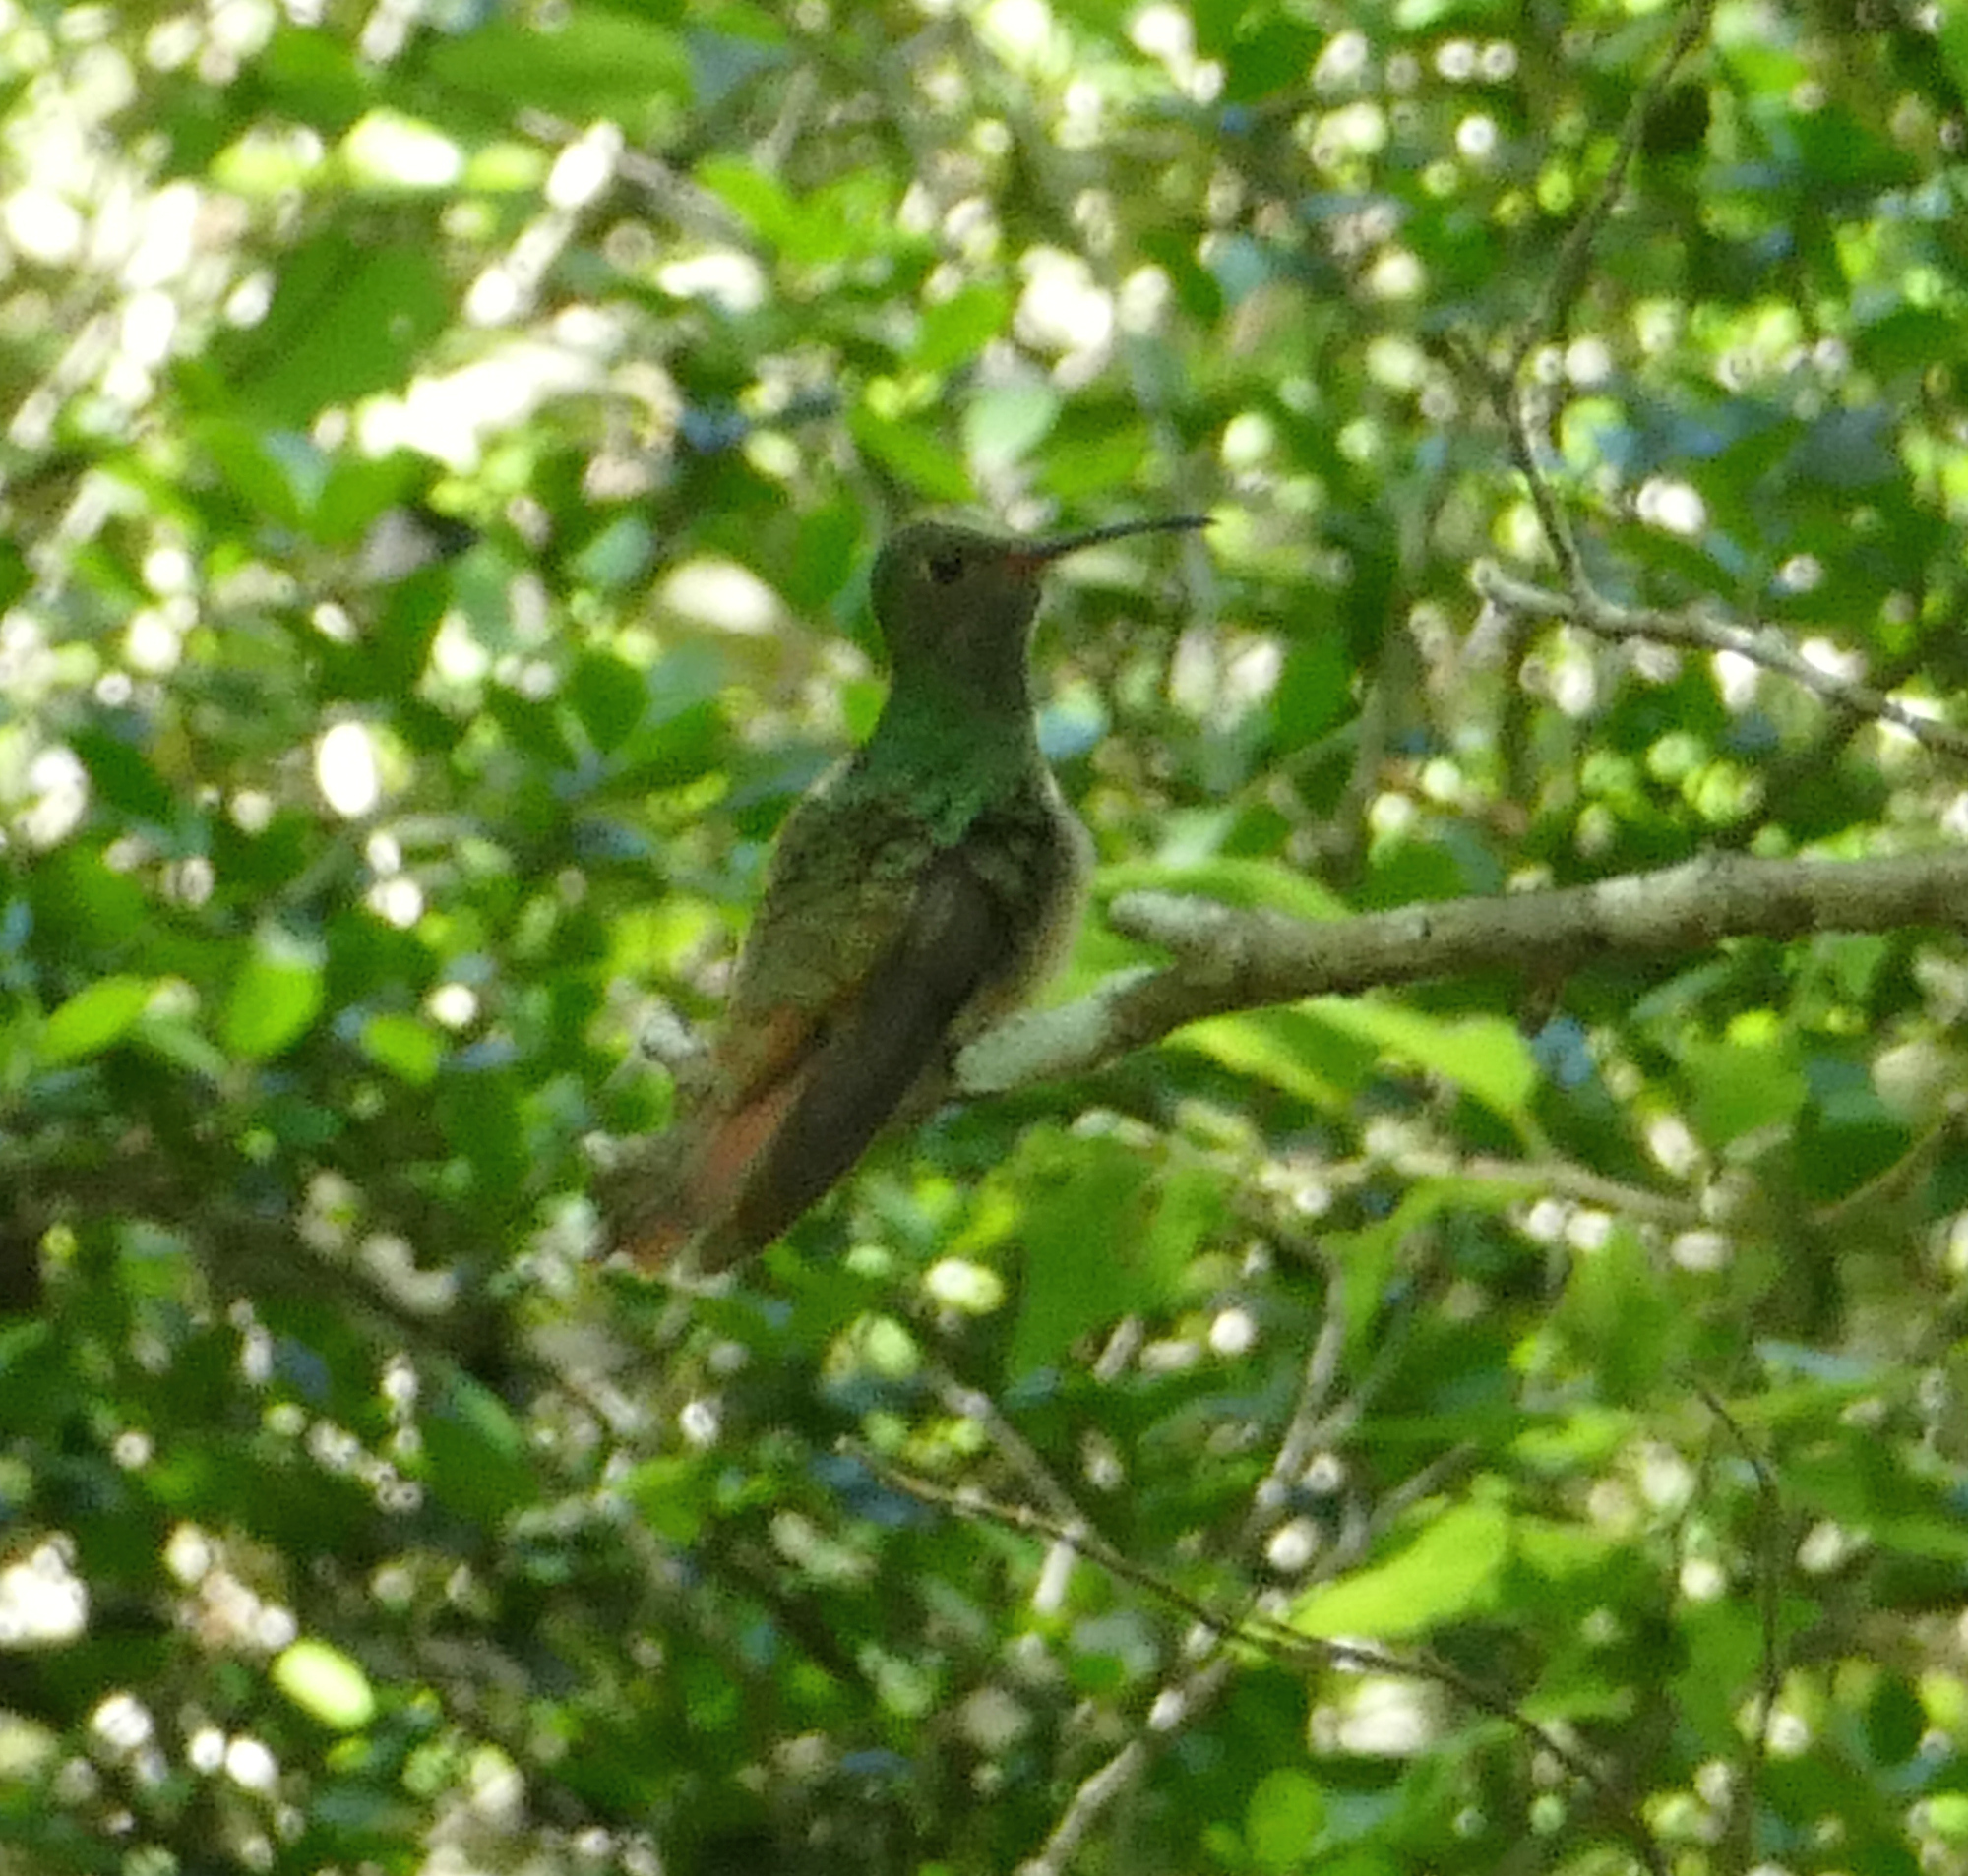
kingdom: Animalia
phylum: Chordata
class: Aves
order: Apodiformes
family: Trochilidae
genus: Amazilia
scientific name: Amazilia yucatanensis
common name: Buff-bellied hummingbird
